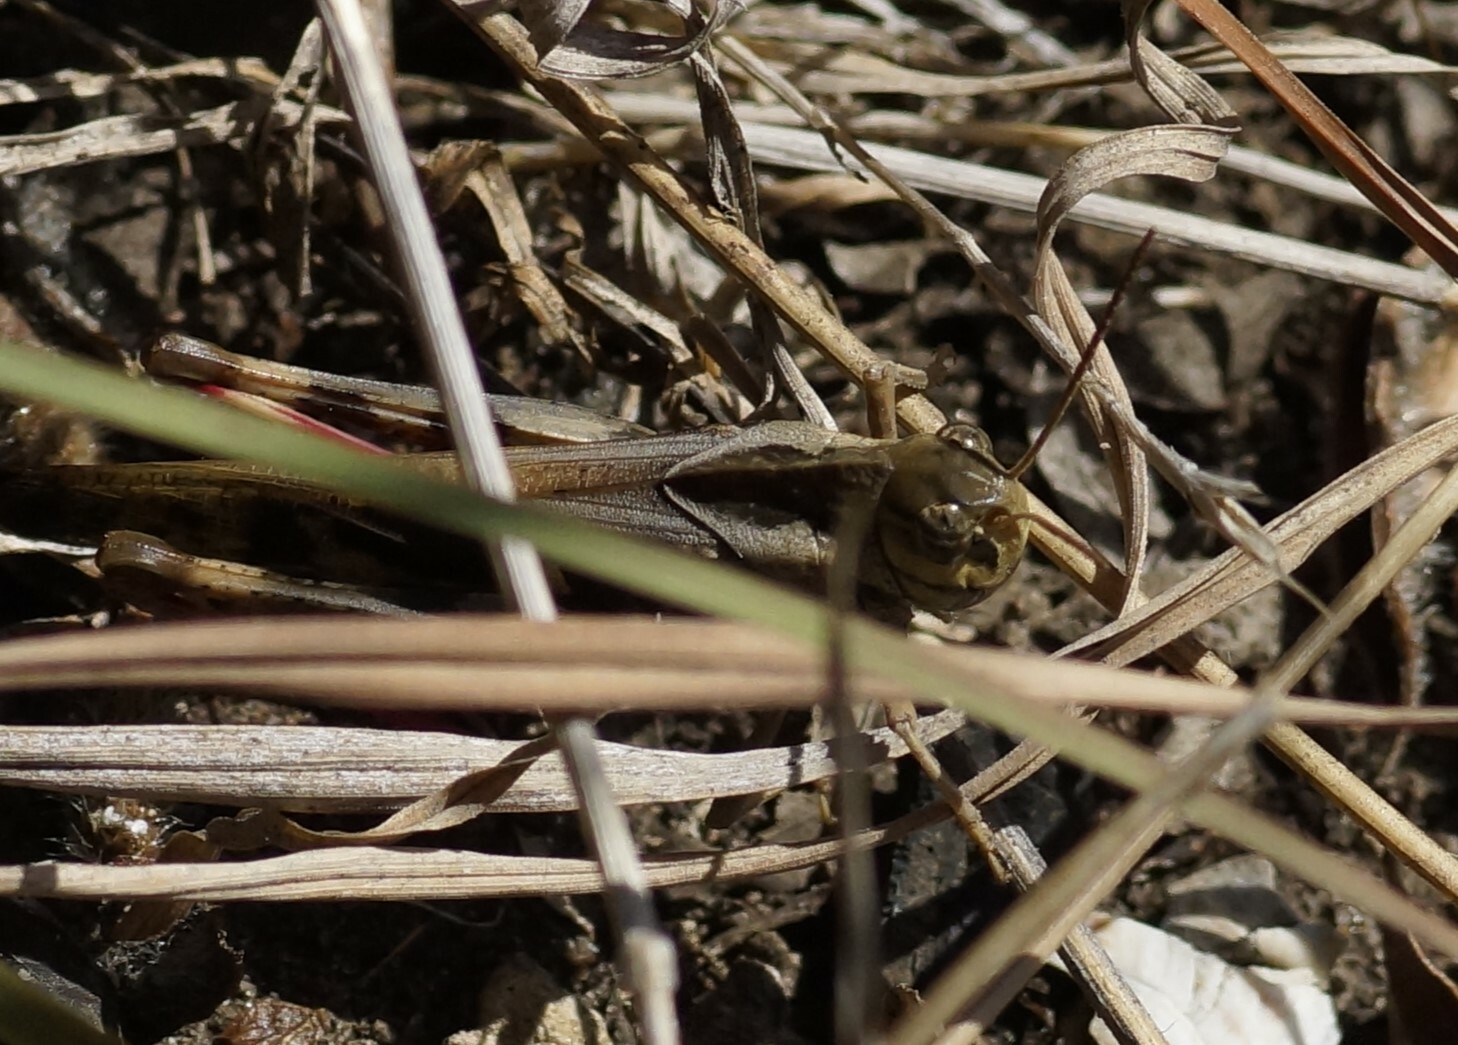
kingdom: Animalia
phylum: Arthropoda
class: Insecta
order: Orthoptera
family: Acrididae
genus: Gastrimargus
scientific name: Gastrimargus musicus
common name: Yellow-winged locust
